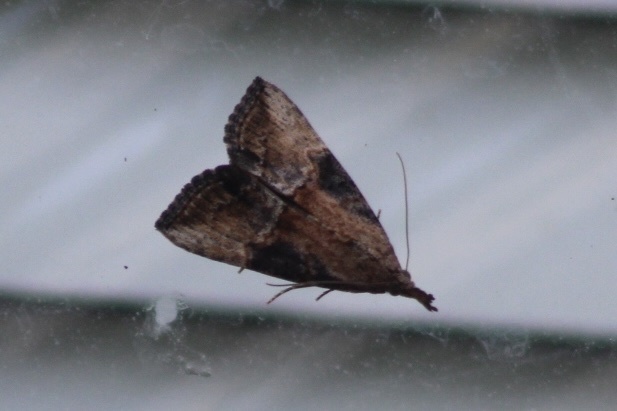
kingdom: Animalia
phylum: Arthropoda
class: Insecta
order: Lepidoptera
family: Erebidae
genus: Hypena
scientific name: Hypena scabra
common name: Green cloverworm
